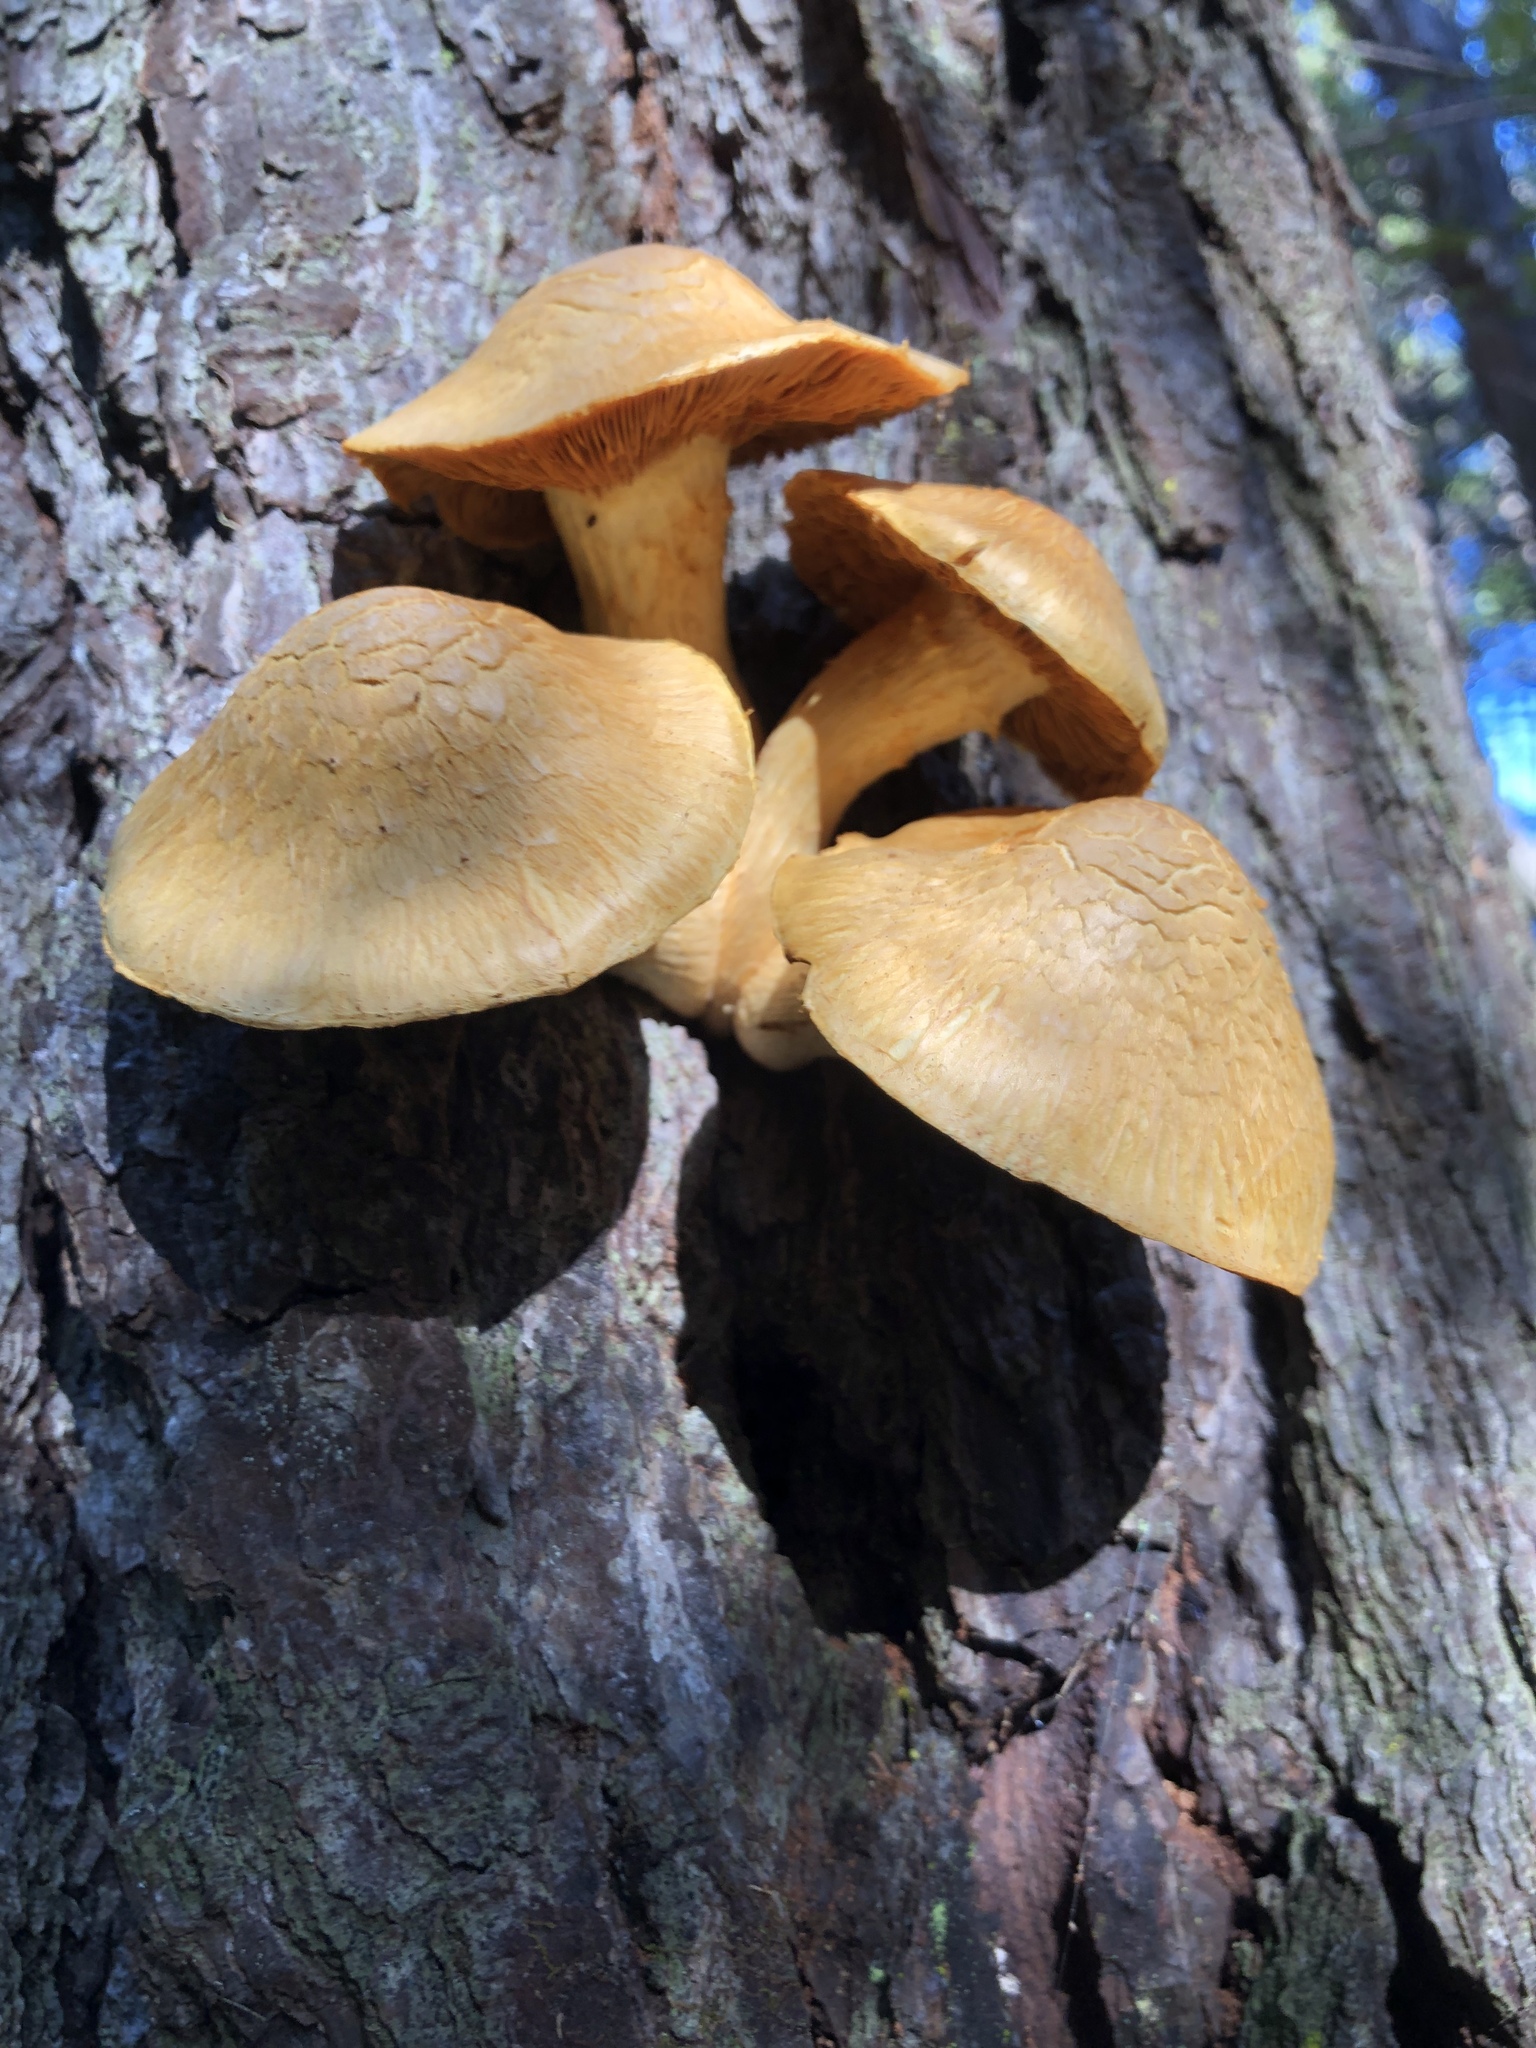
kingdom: Fungi
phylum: Basidiomycota
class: Agaricomycetes
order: Agaricales
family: Hymenogastraceae
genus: Gymnopilus
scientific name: Gymnopilus junonius
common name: Spectacular rustgill
